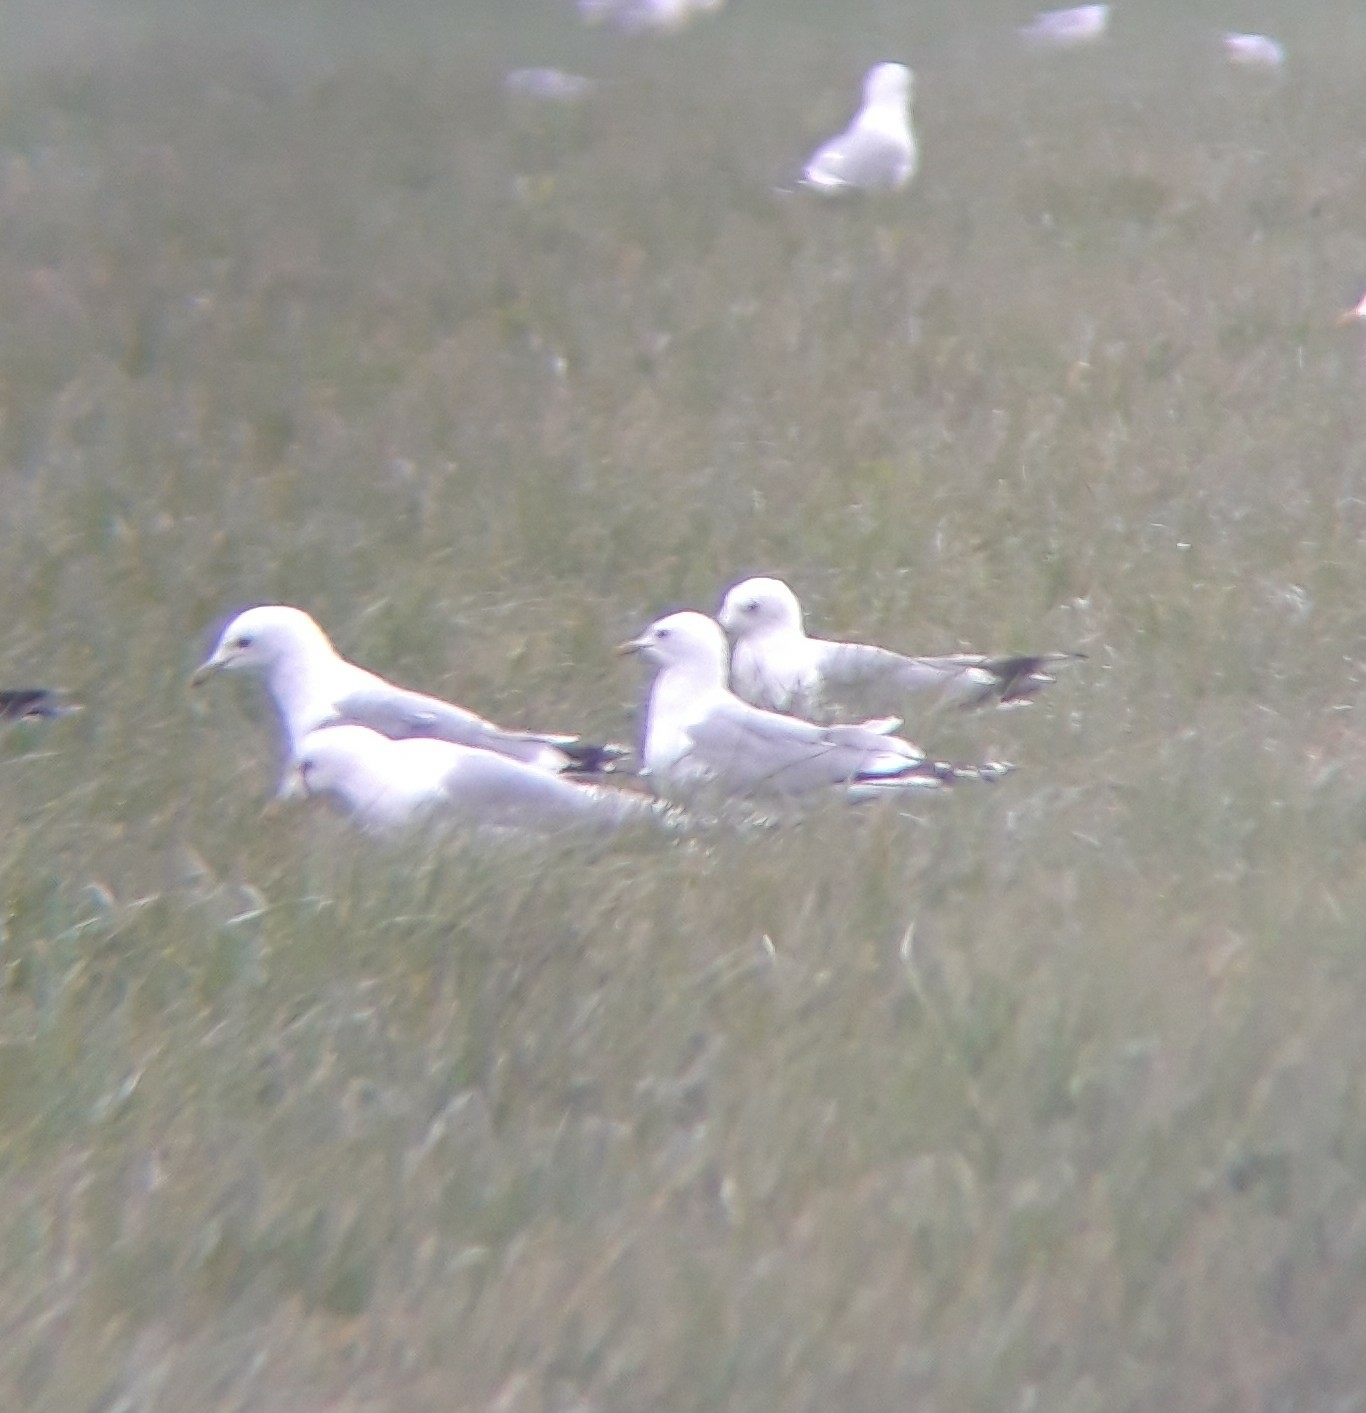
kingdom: Animalia
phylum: Chordata
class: Aves
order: Charadriiformes
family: Laridae
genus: Larus
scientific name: Larus canus
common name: Mew gull
